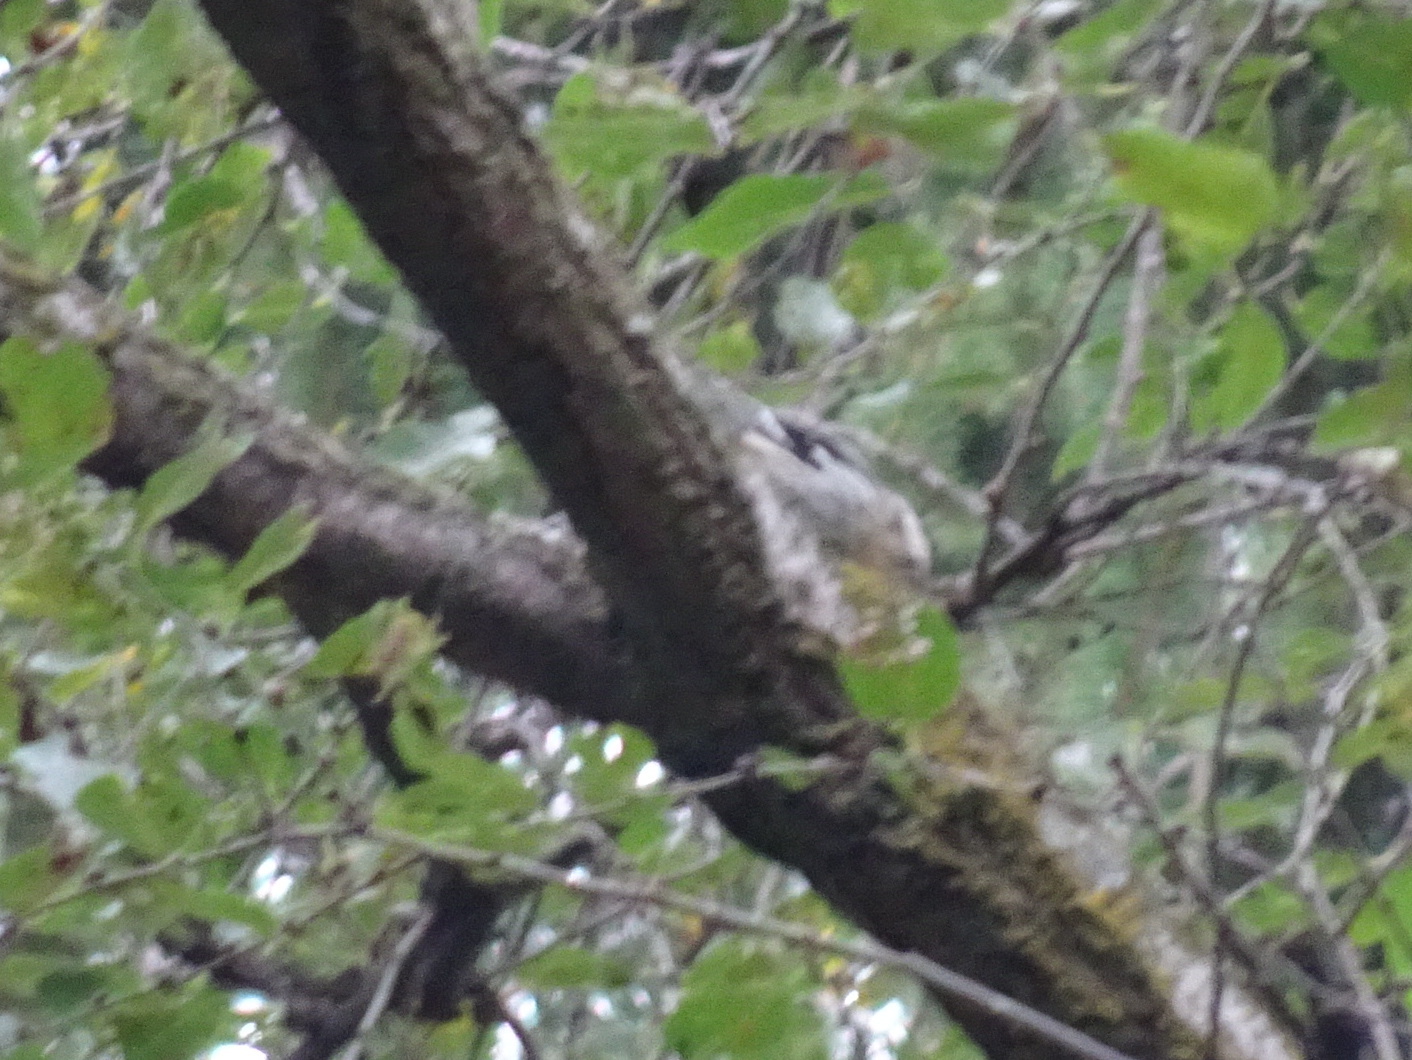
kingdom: Animalia
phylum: Chordata
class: Aves
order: Passeriformes
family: Parulidae
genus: Mniotilta
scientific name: Mniotilta varia
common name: Black-and-white warbler
